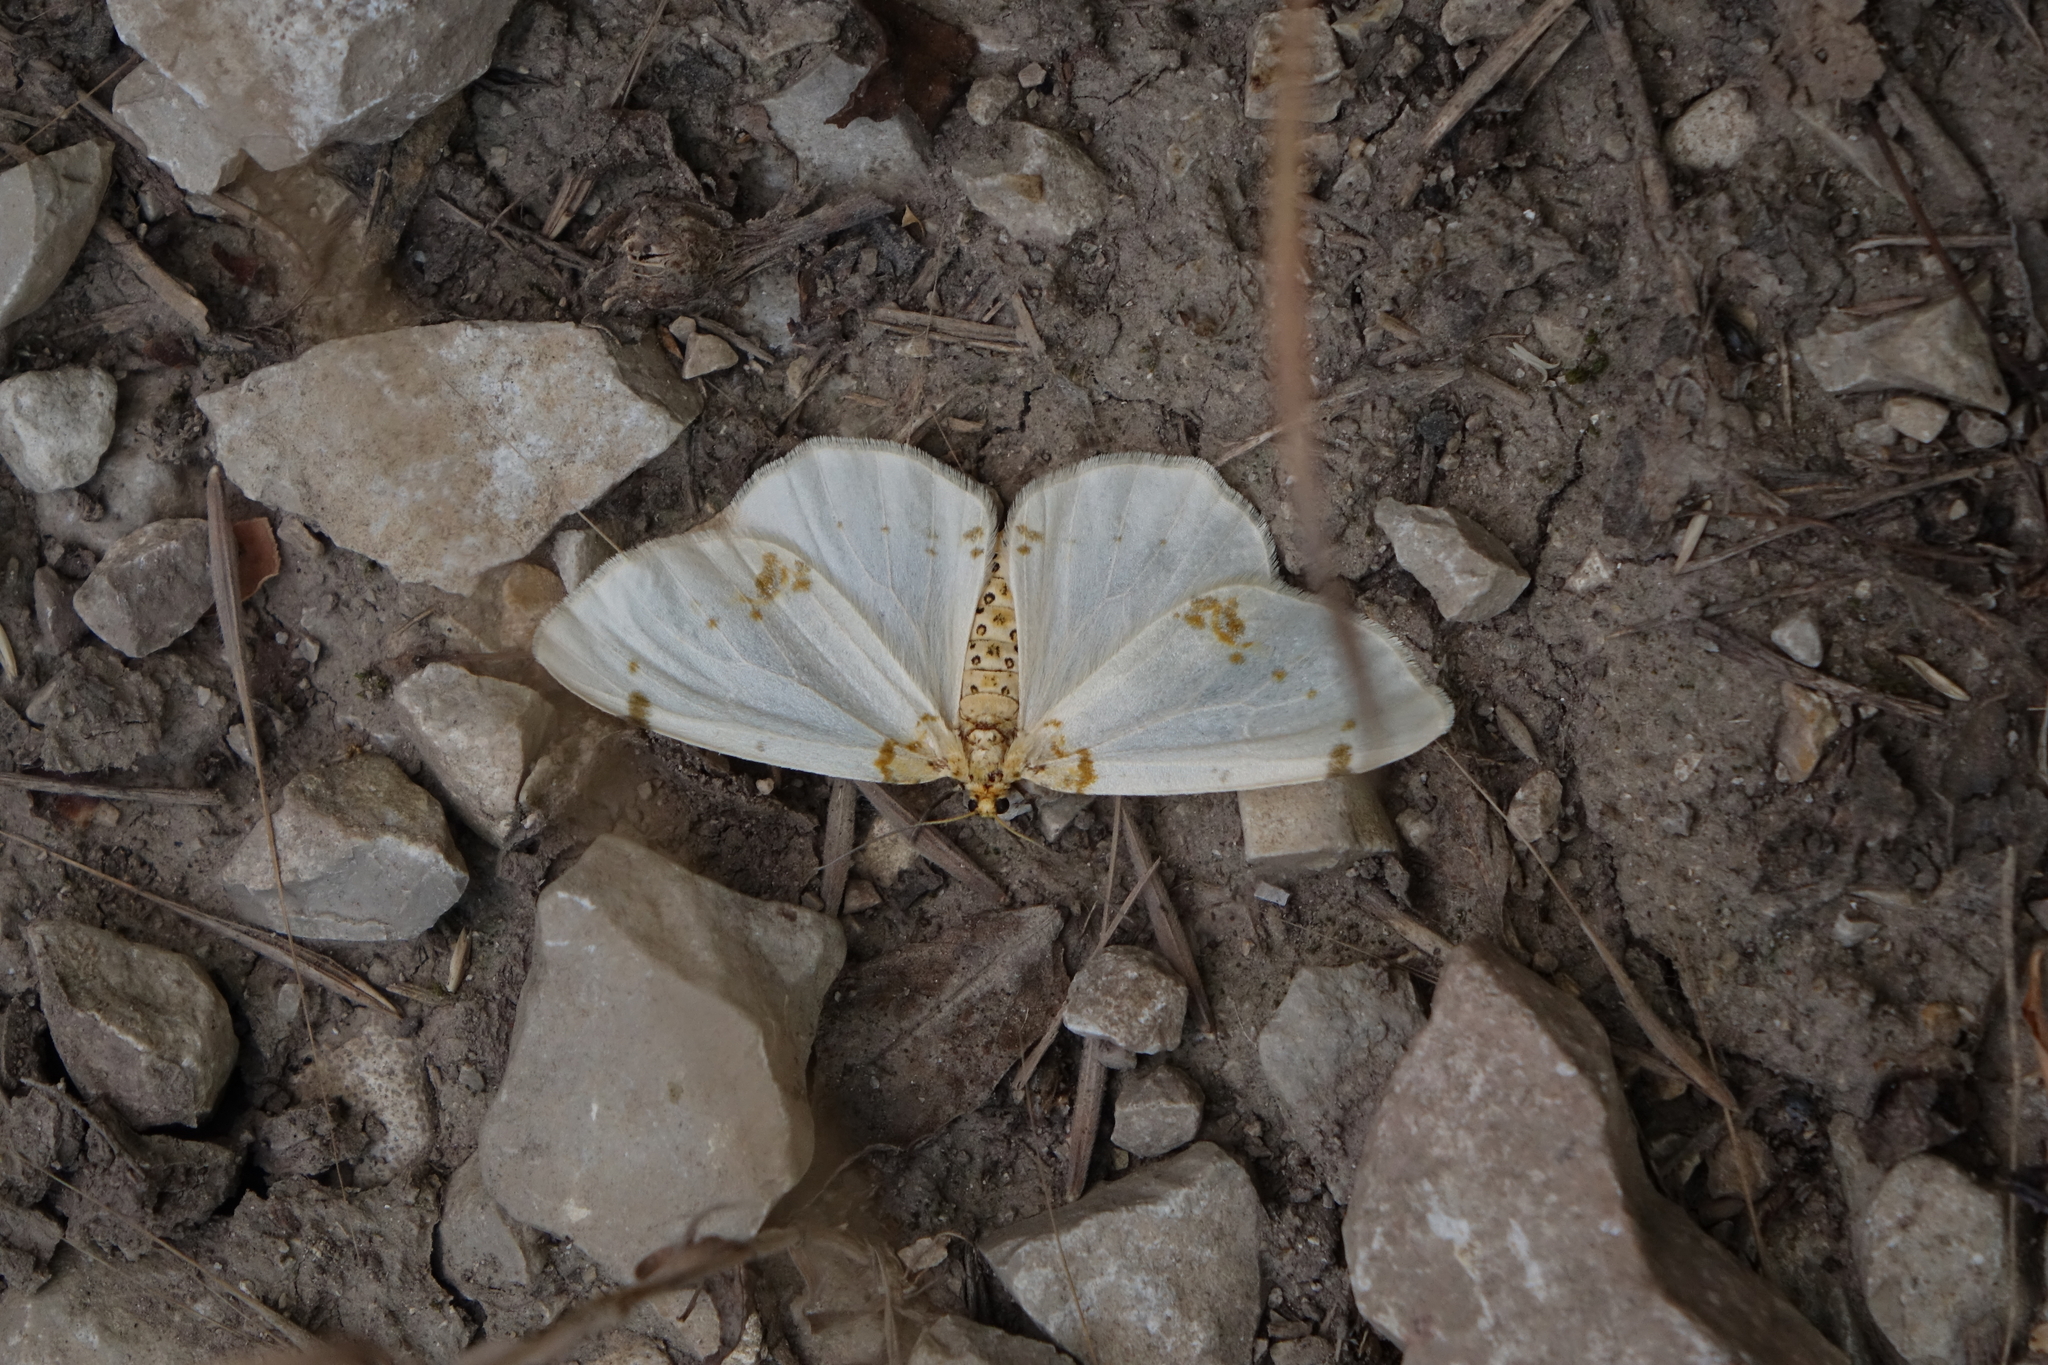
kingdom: Animalia
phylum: Arthropoda
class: Insecta
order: Lepidoptera
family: Geometridae
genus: Abraxas
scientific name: Abraxas pantaria
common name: Light magpie
